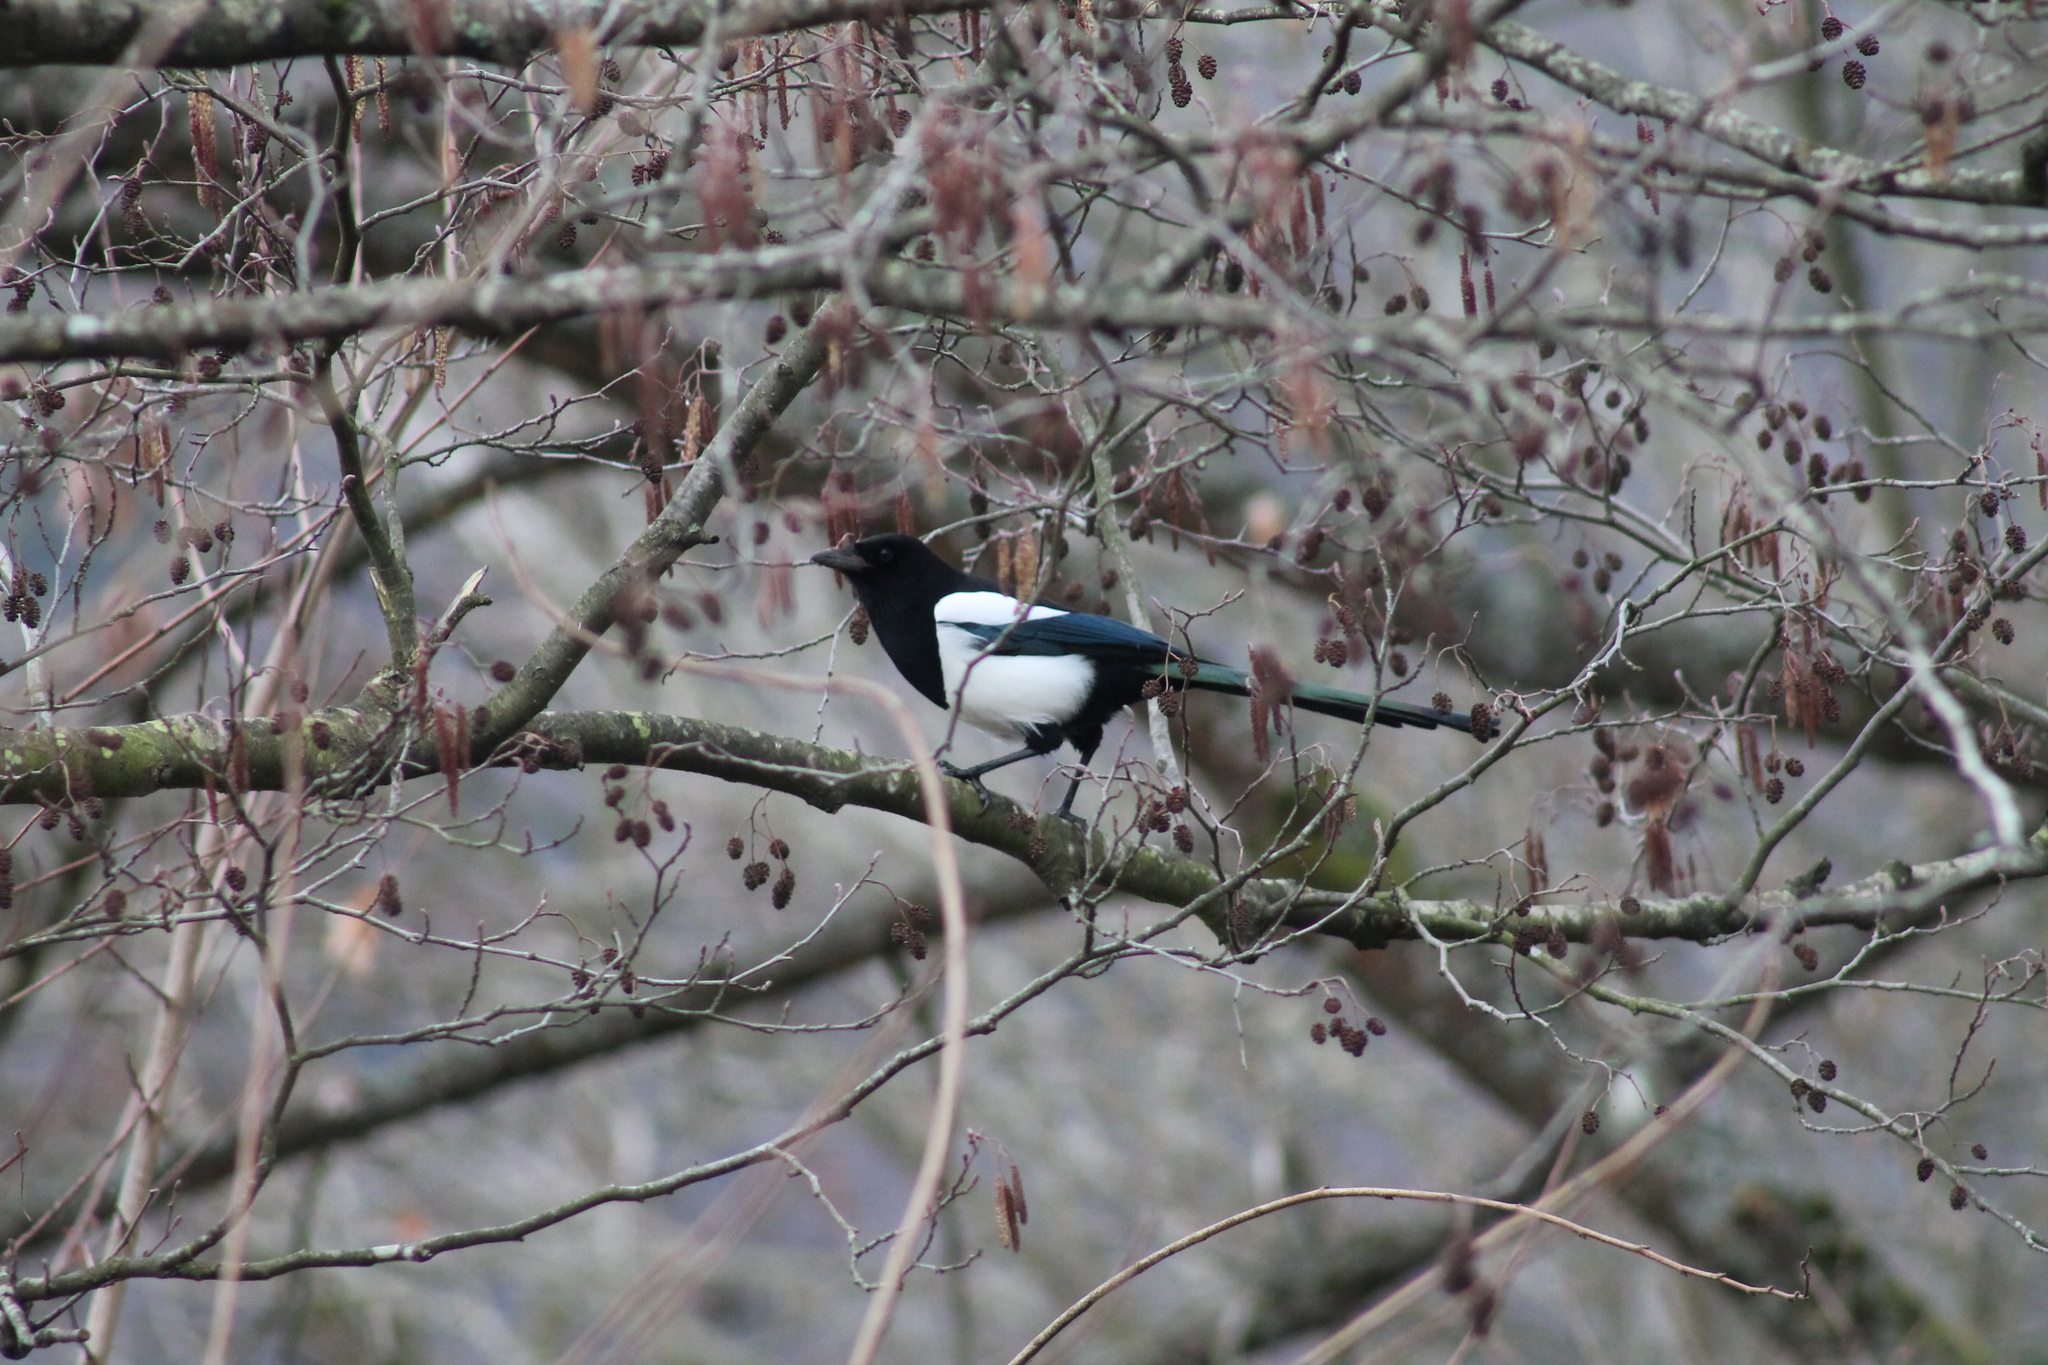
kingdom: Animalia
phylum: Chordata
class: Aves
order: Passeriformes
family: Corvidae
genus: Pica
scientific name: Pica pica
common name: Eurasian magpie
